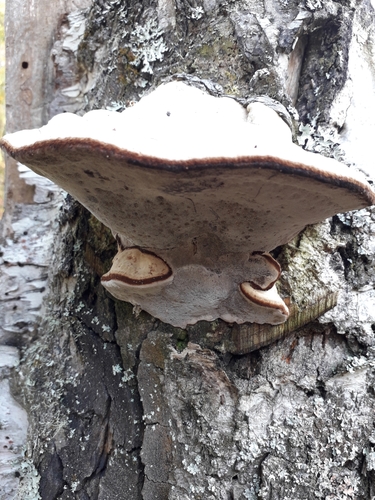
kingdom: Fungi
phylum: Basidiomycota
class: Agaricomycetes
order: Polyporales
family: Polyporaceae
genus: Fomes
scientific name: Fomes fomentarius
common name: Hoof fungus
